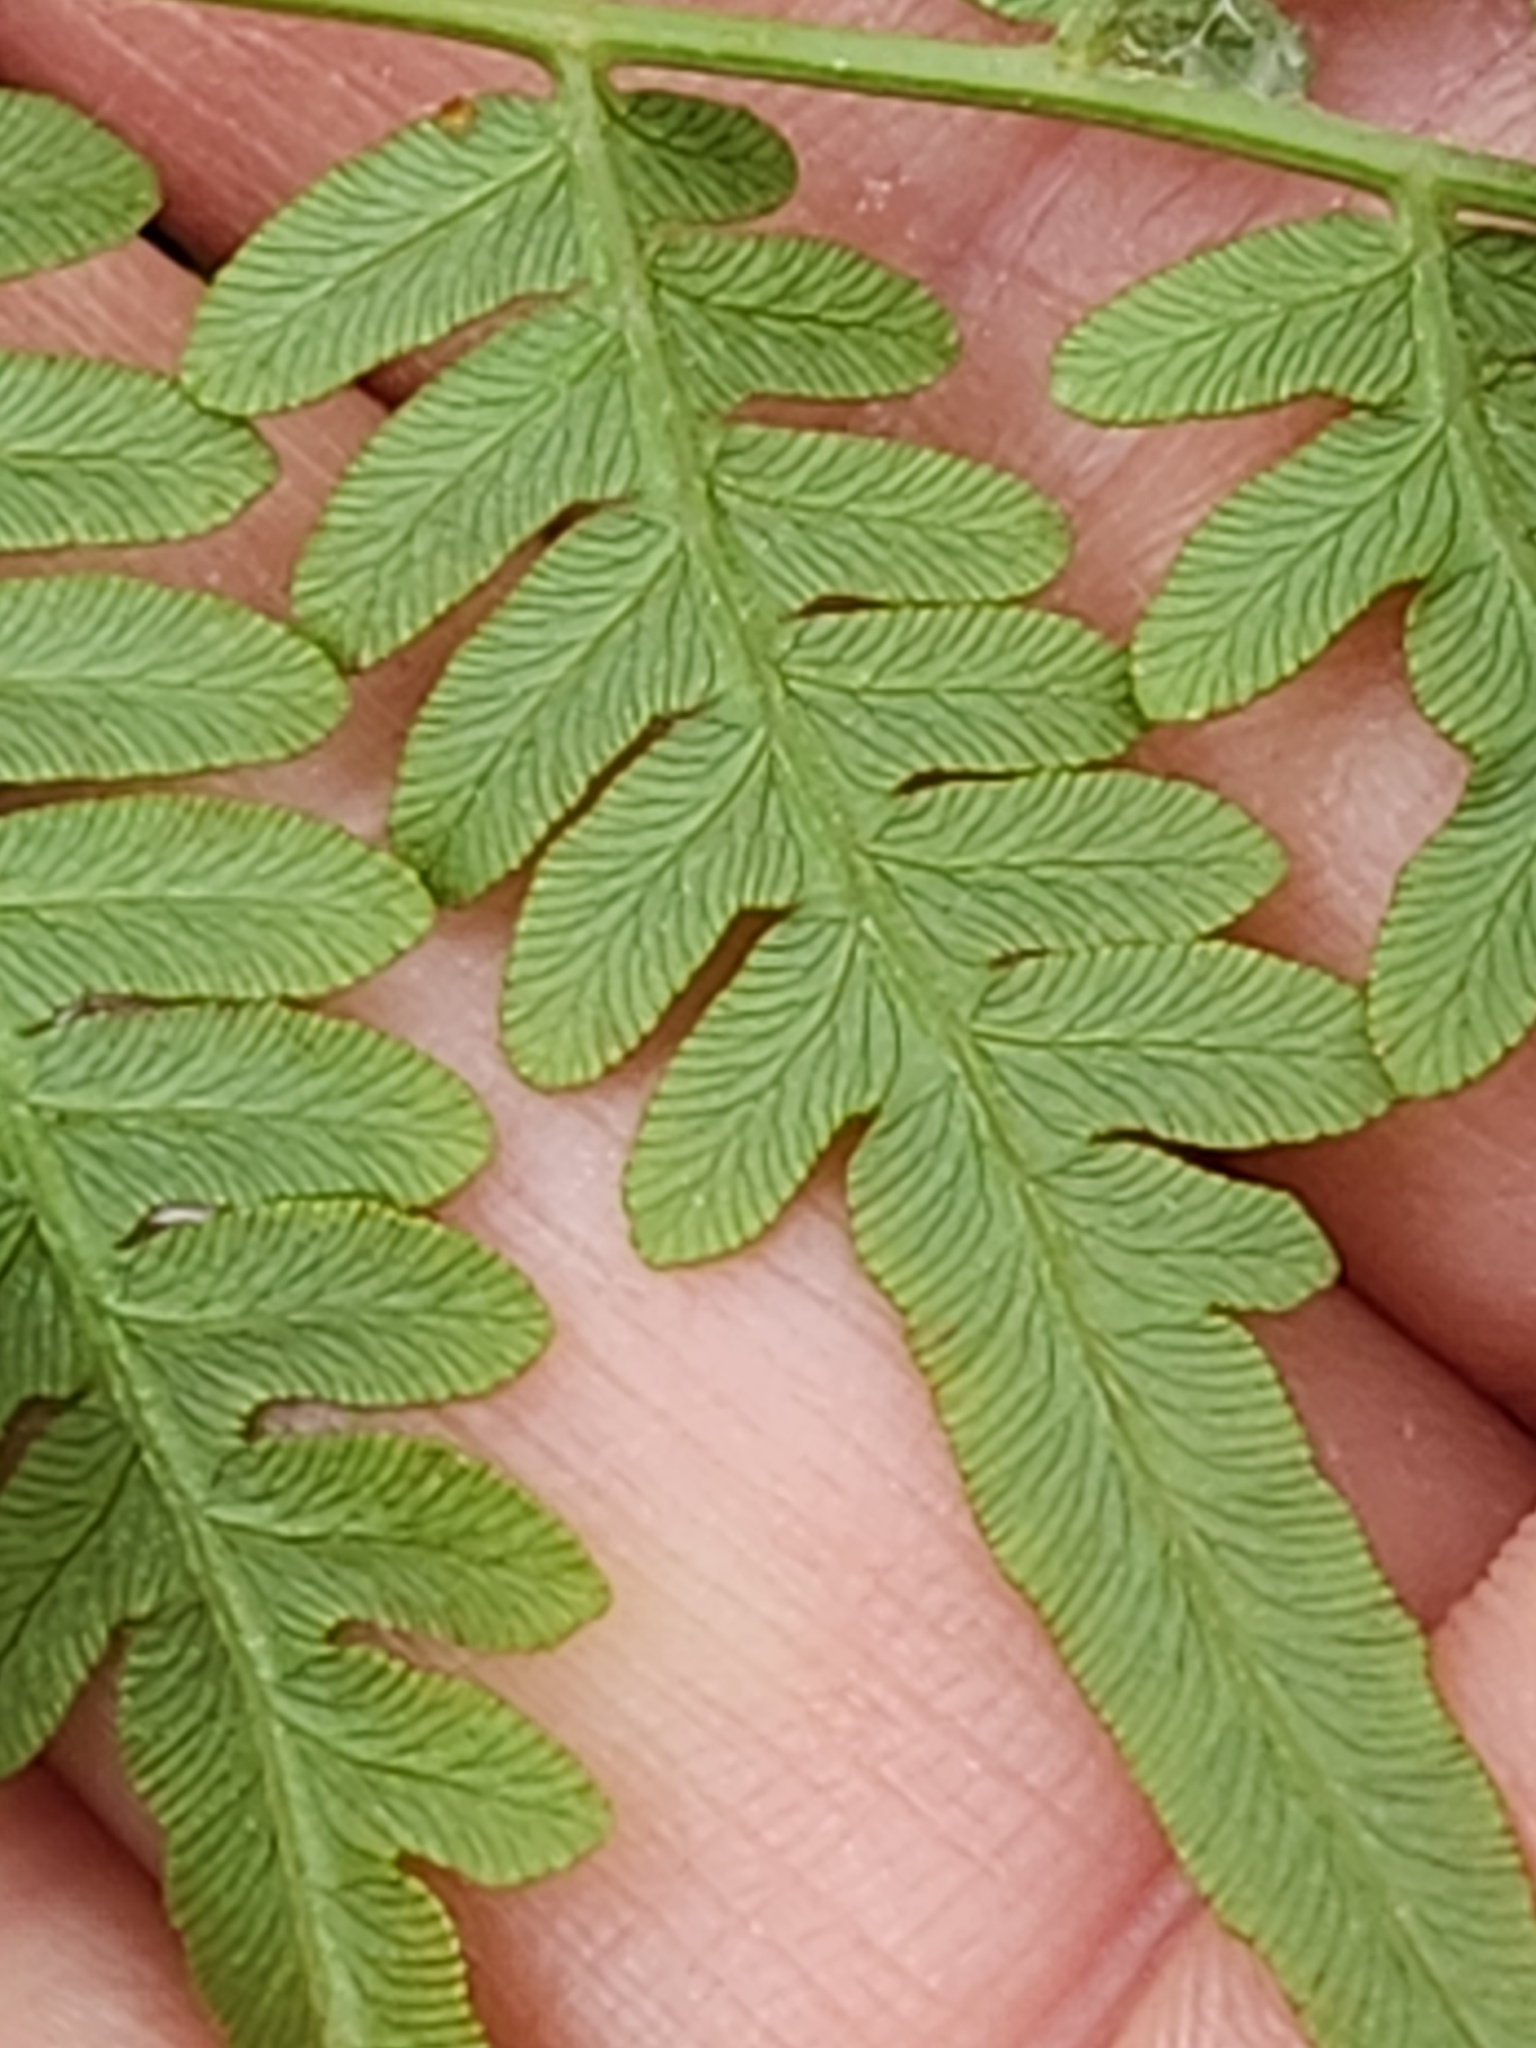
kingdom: Plantae
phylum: Tracheophyta
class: Polypodiopsida
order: Polypodiales
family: Dennstaedtiaceae
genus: Pteridium
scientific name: Pteridium
